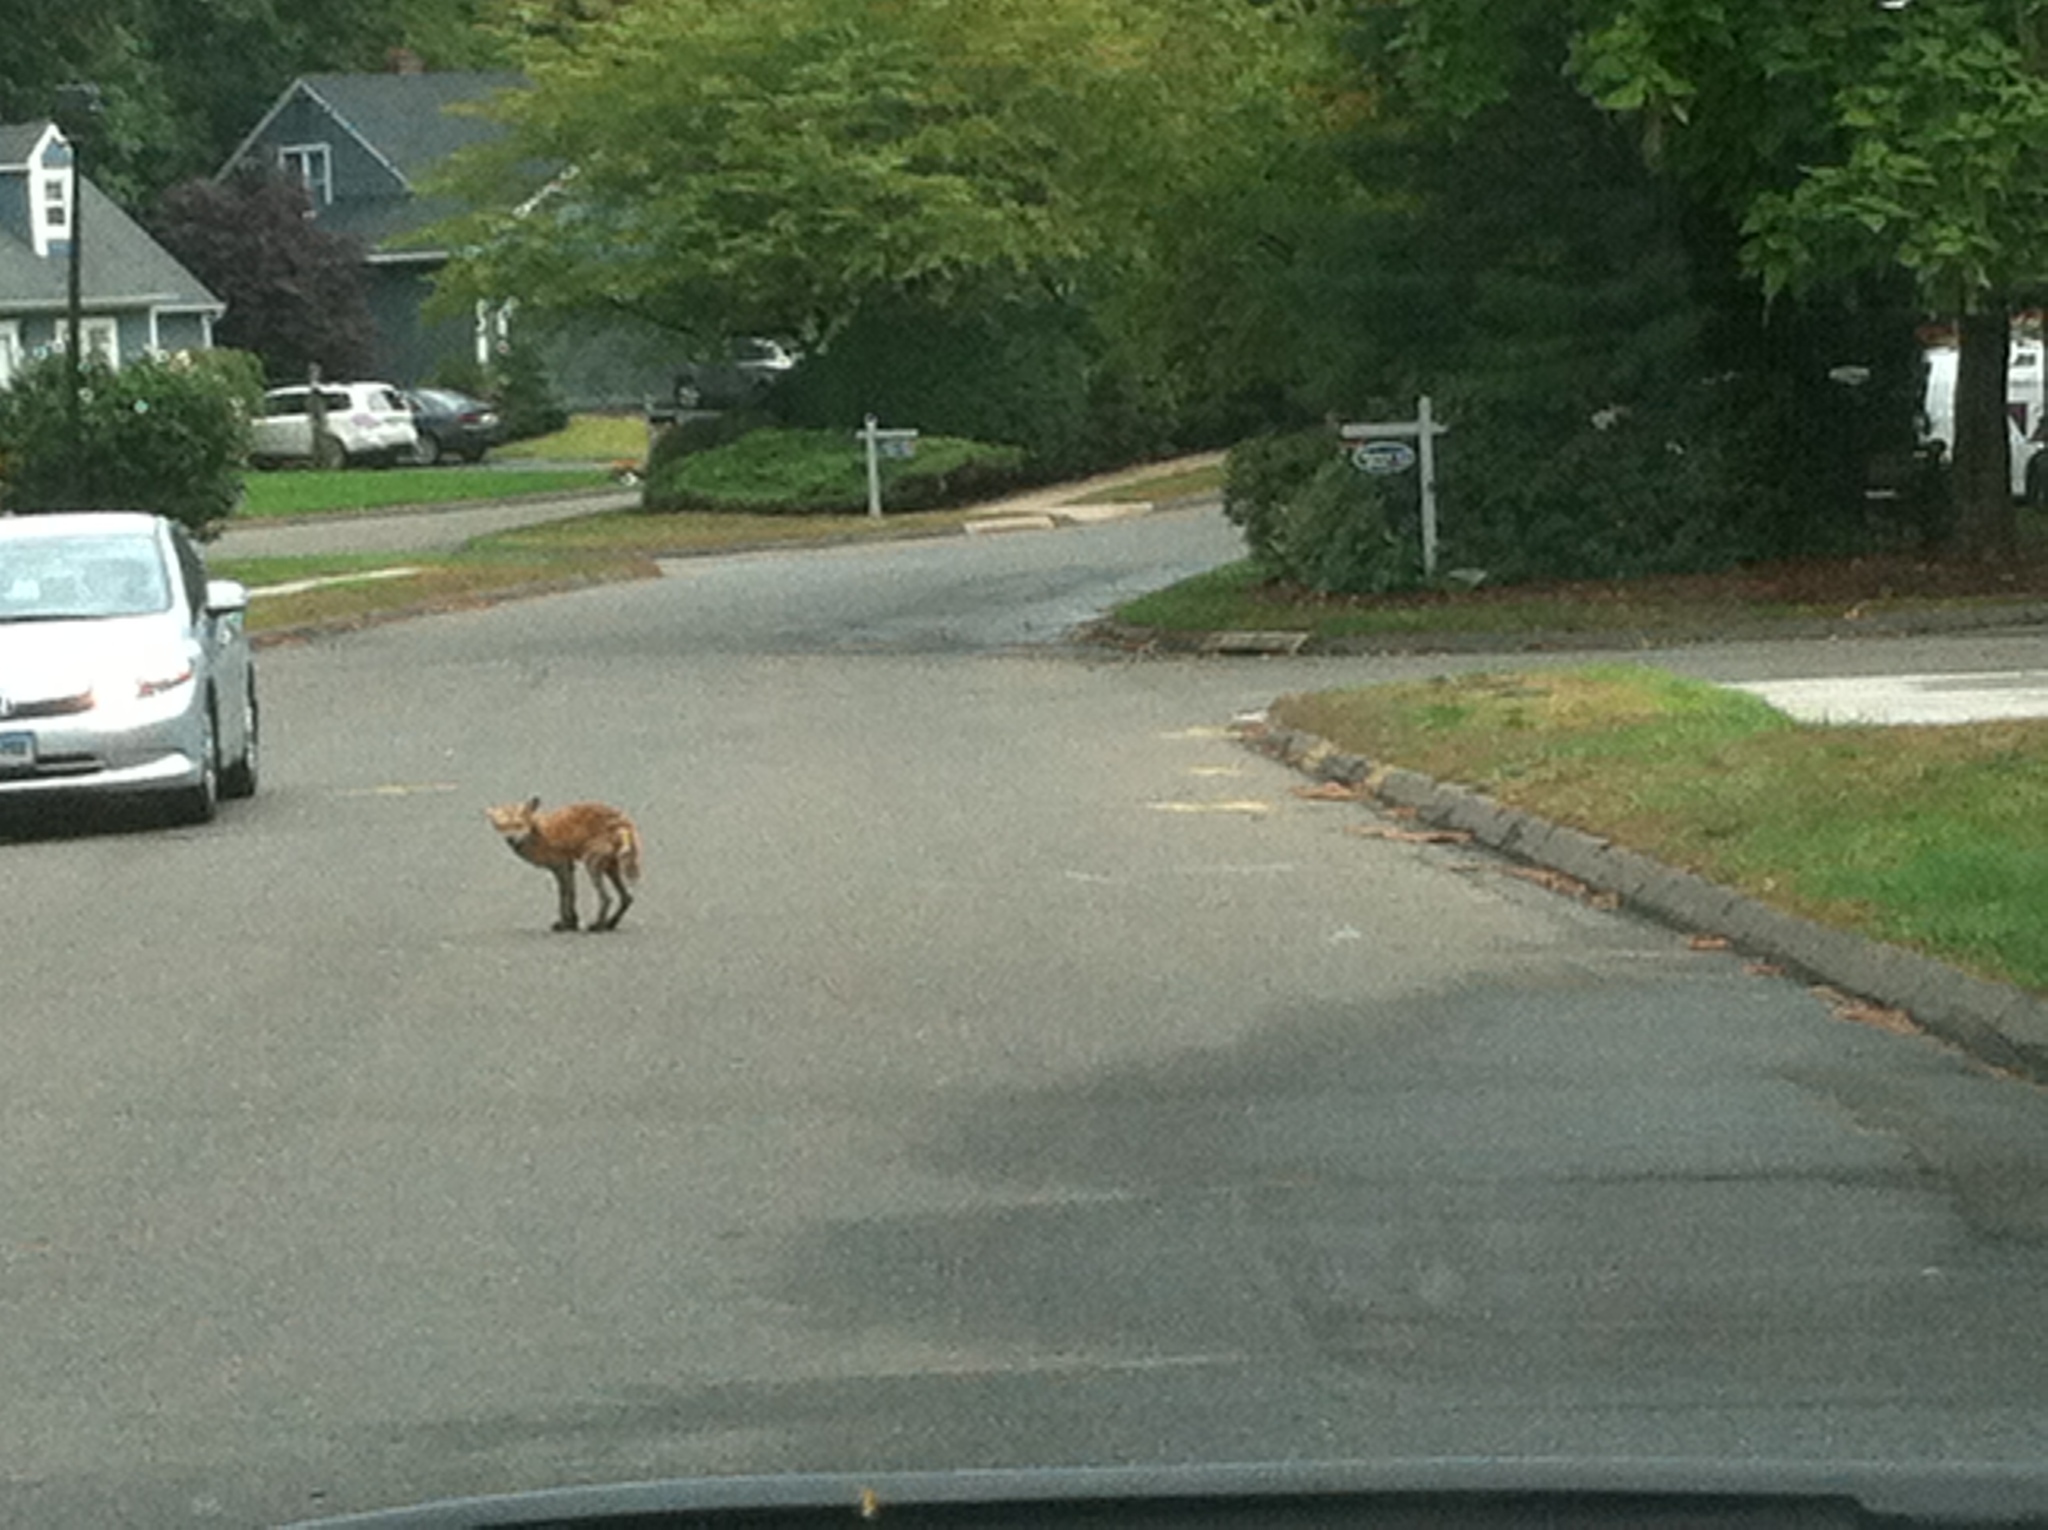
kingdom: Animalia
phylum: Chordata
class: Mammalia
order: Carnivora
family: Canidae
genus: Vulpes
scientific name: Vulpes vulpes
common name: Red fox
